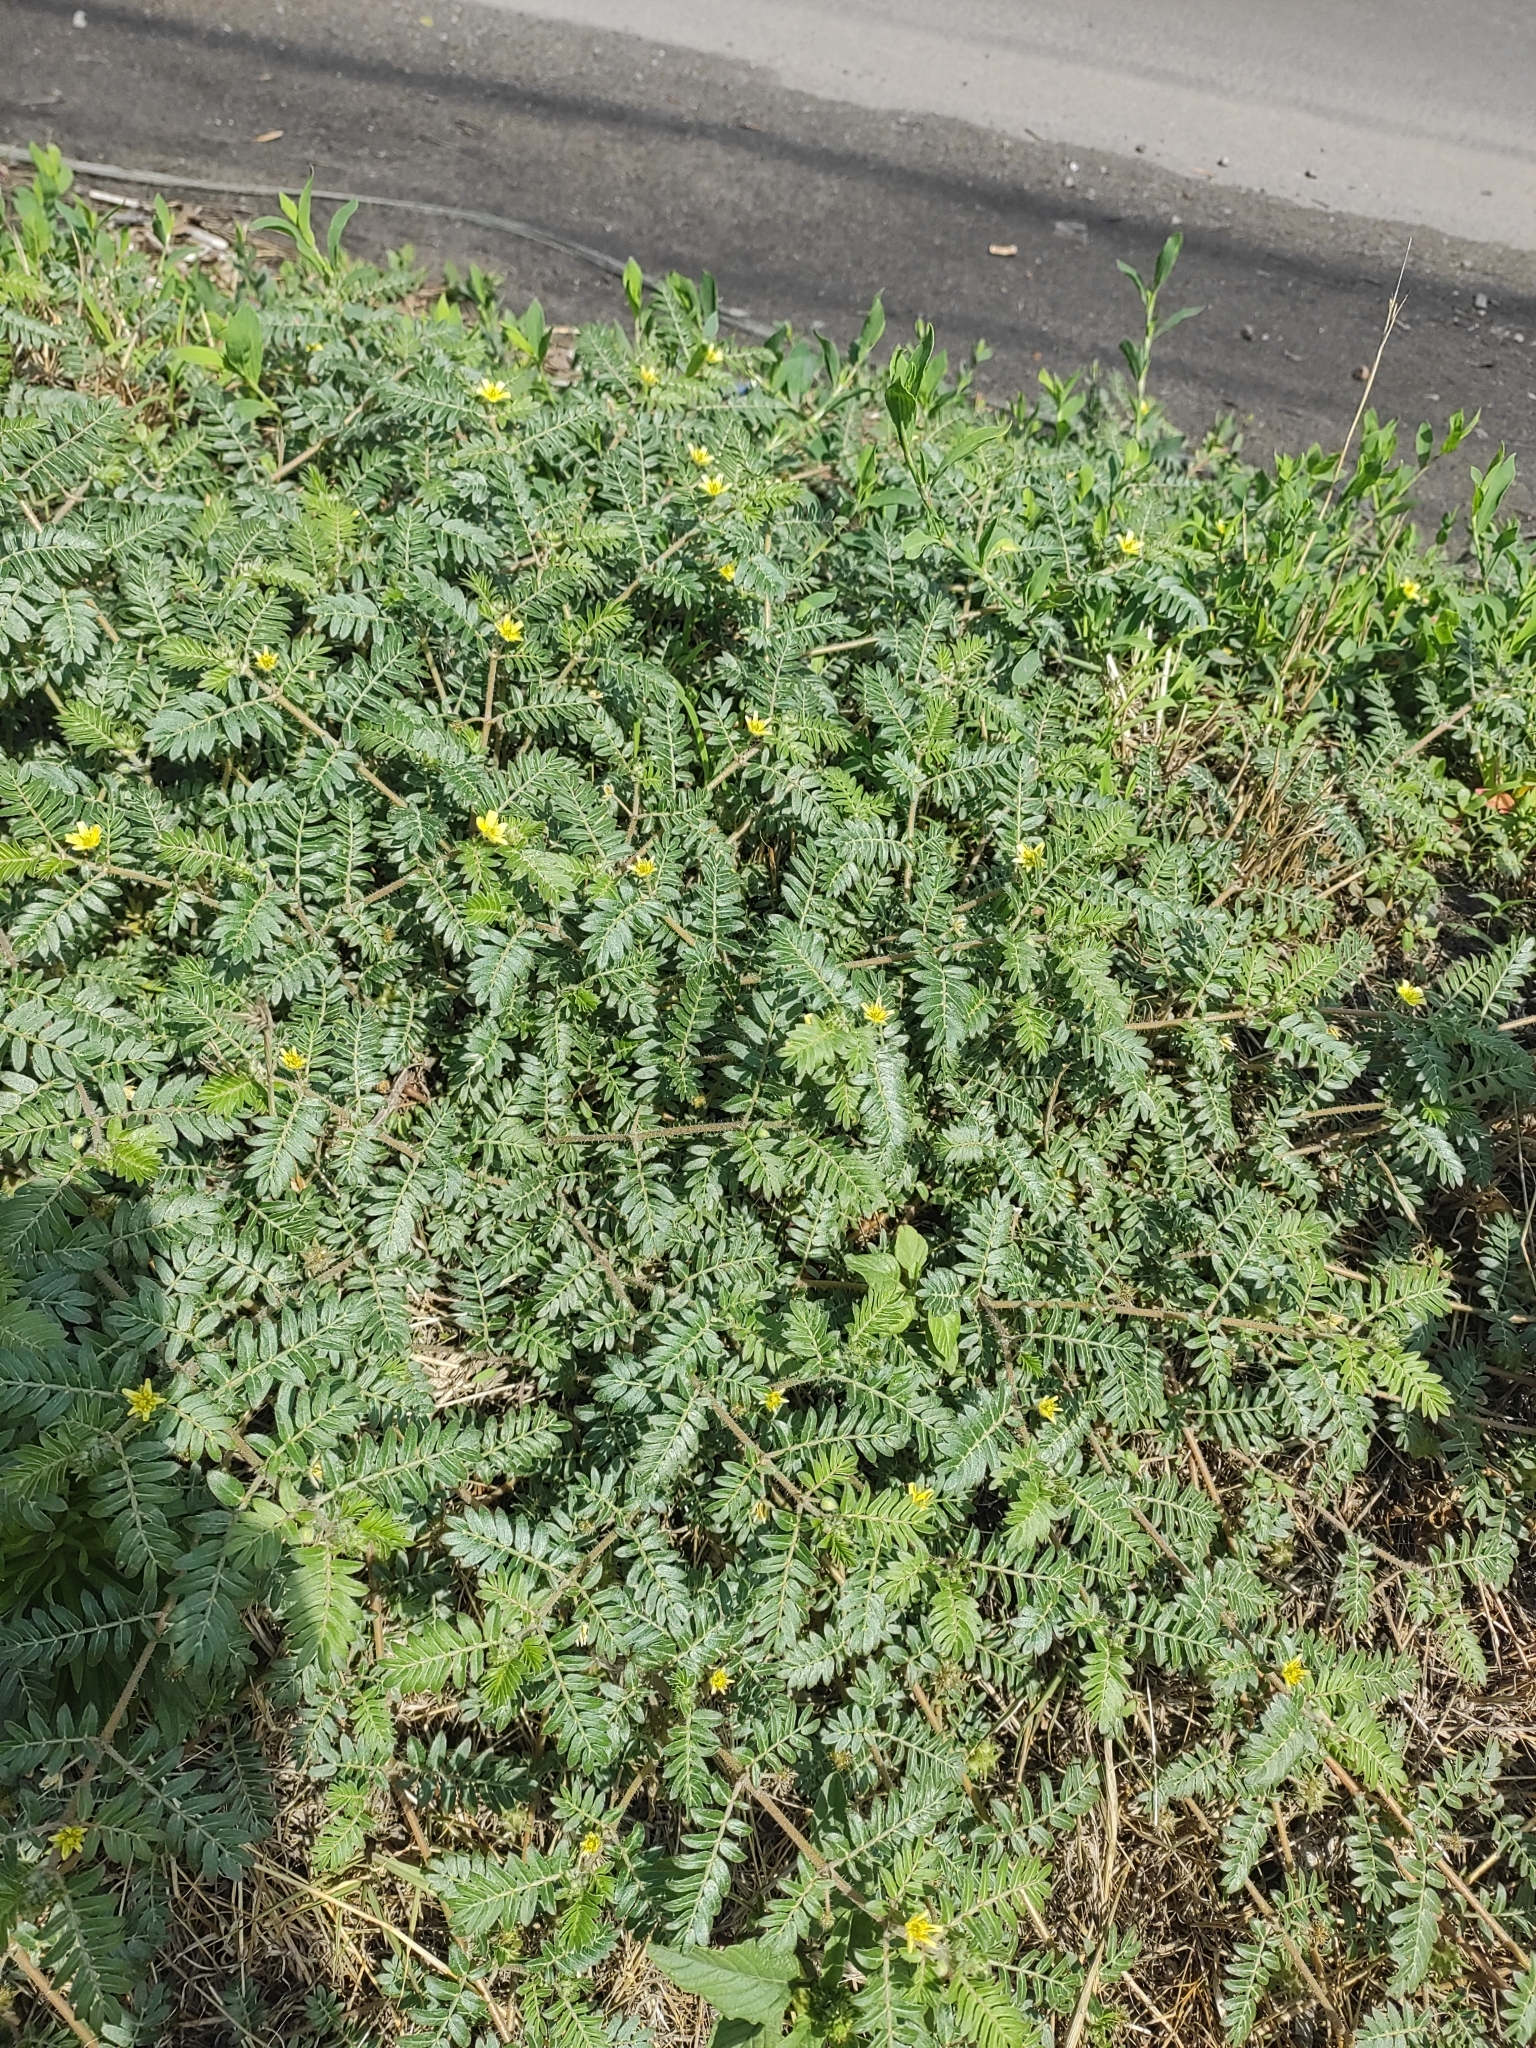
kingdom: Plantae
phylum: Tracheophyta
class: Magnoliopsida
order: Zygophyllales
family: Zygophyllaceae
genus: Tribulus
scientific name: Tribulus terrestris
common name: Puncturevine
